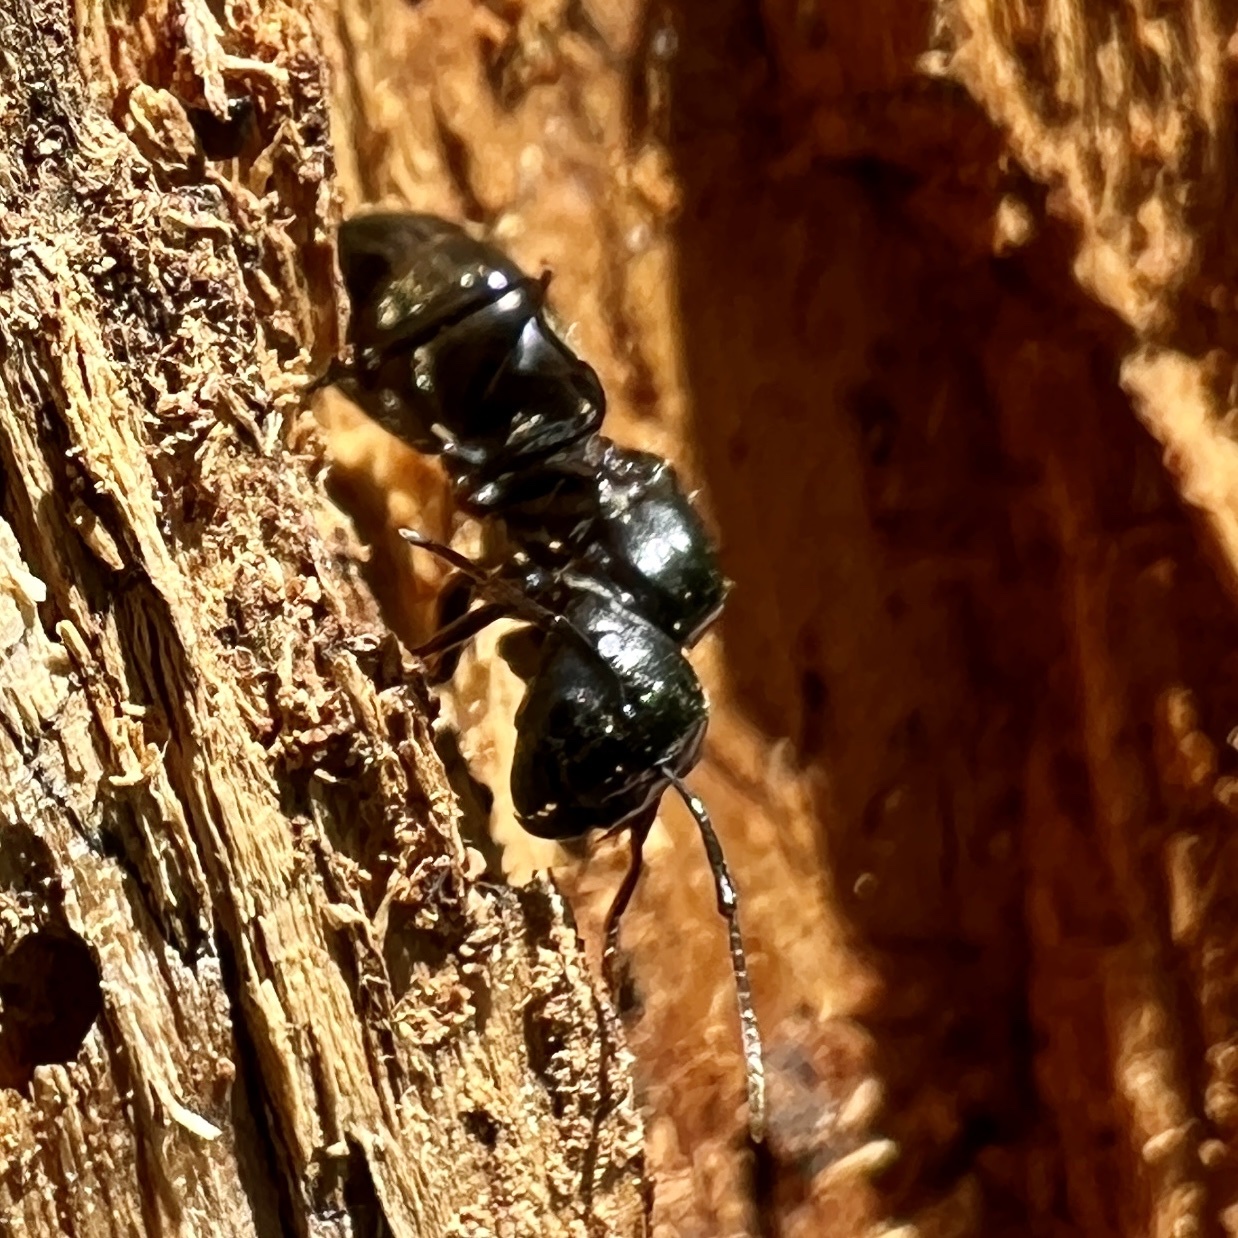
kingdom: Animalia
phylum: Arthropoda
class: Insecta
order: Hymenoptera
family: Formicidae
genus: Camponotus
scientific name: Camponotus pennsylvanicus
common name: Black carpenter ant
